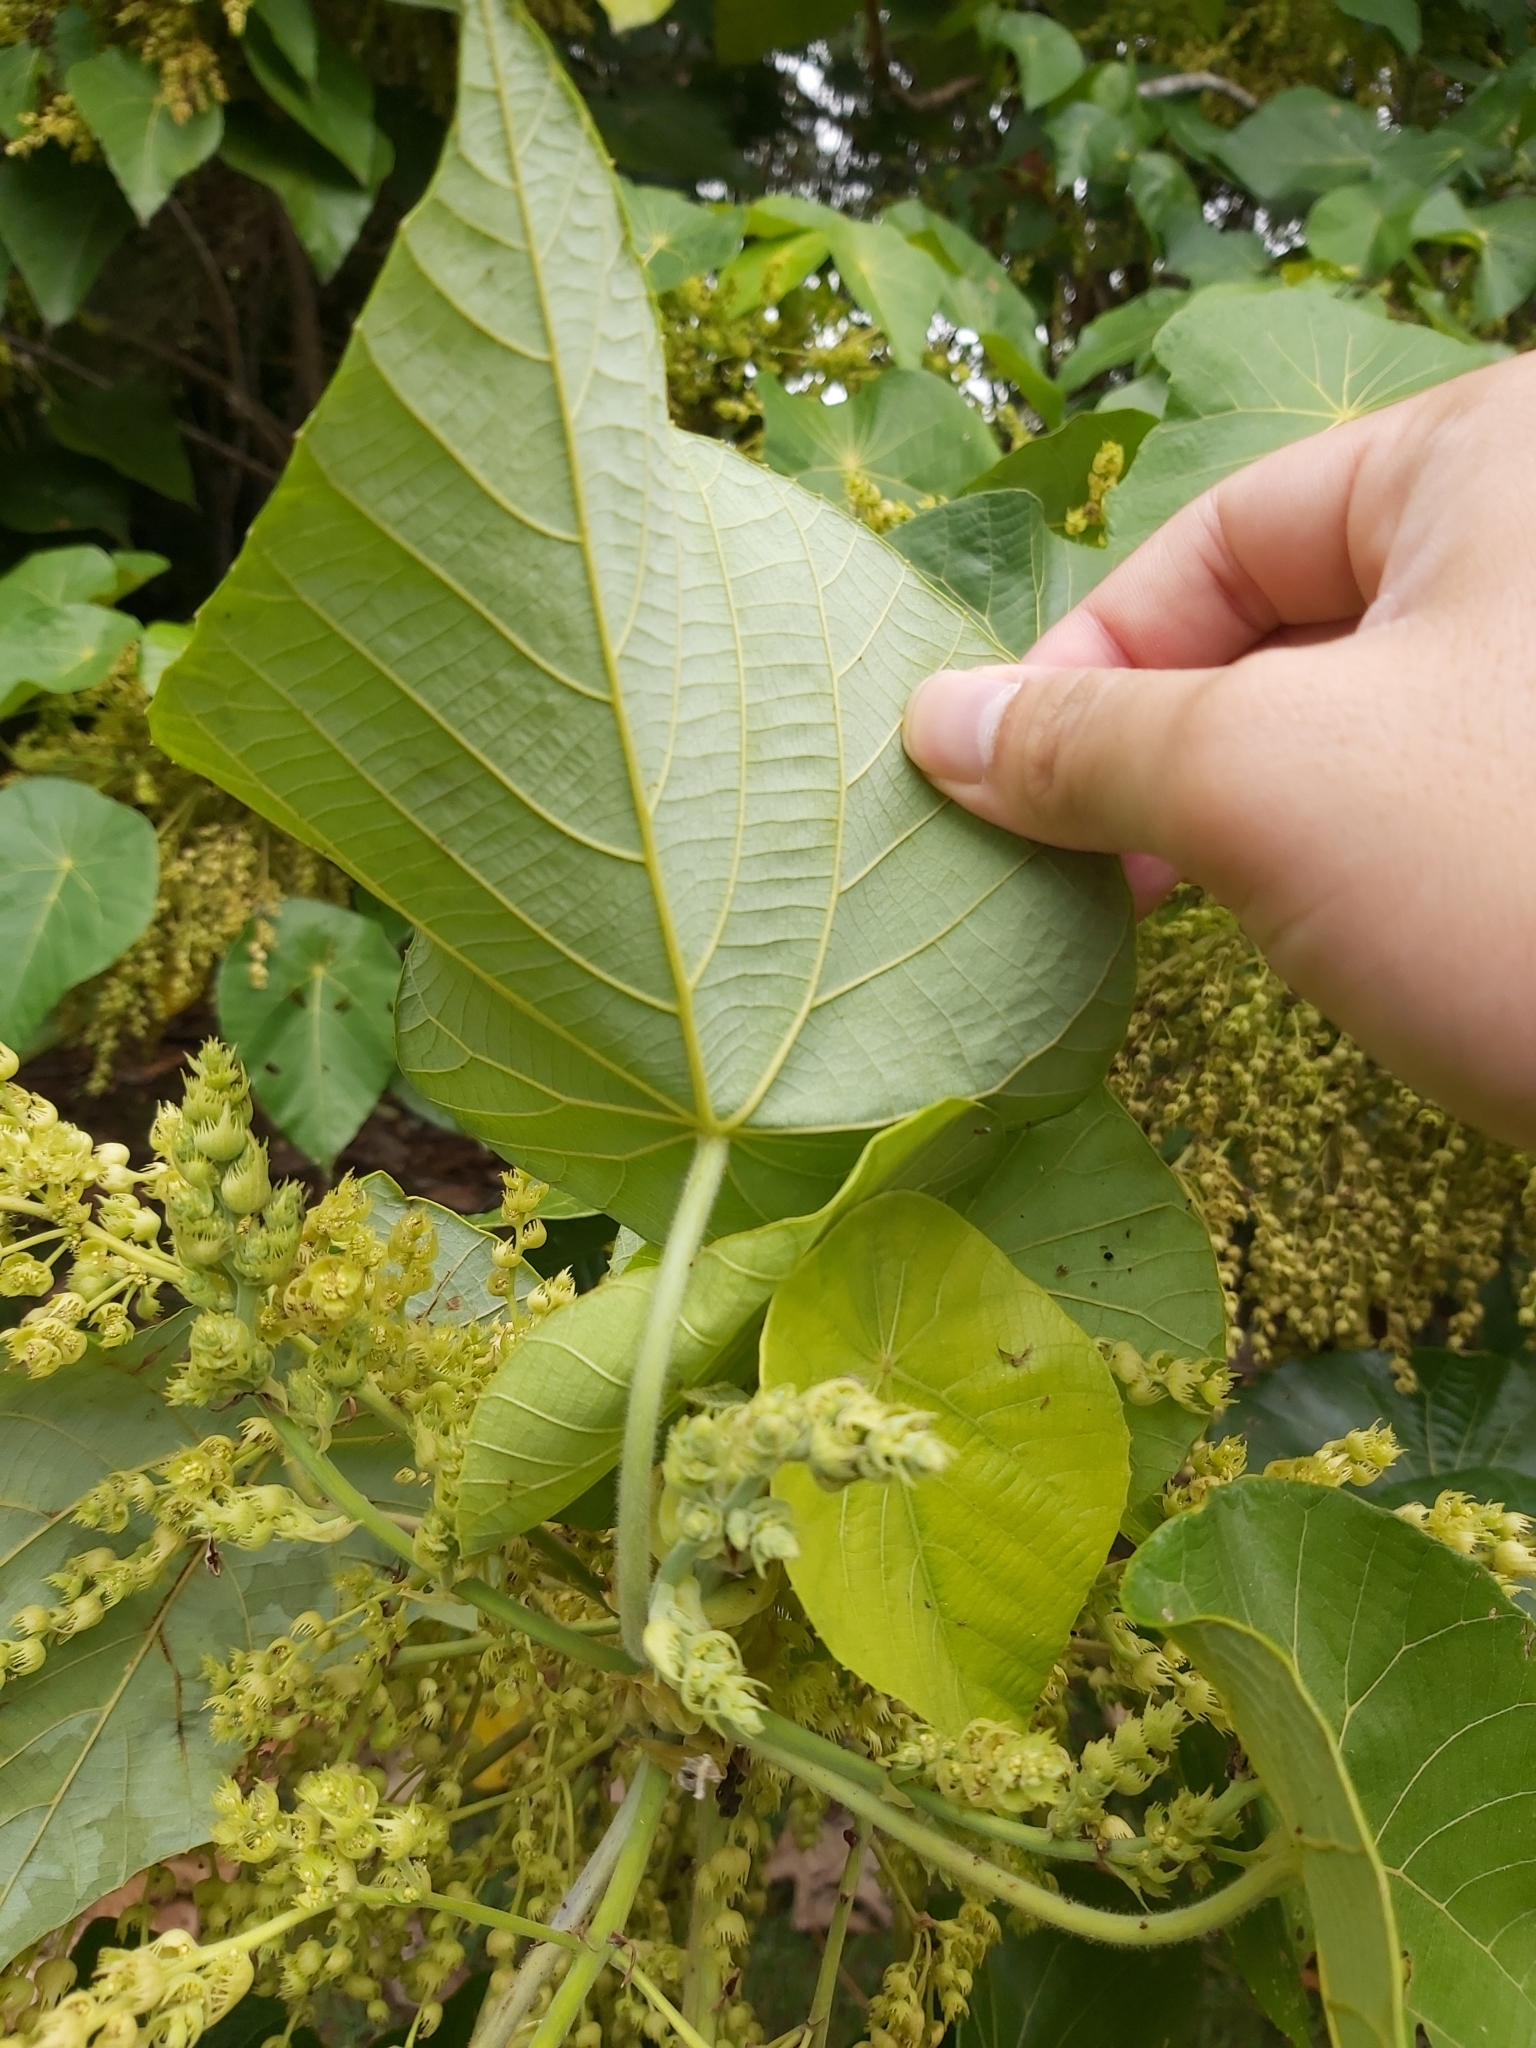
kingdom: Plantae
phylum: Tracheophyta
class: Magnoliopsida
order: Malpighiales
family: Euphorbiaceae
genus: Macaranga
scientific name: Macaranga tanarius
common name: Parasol leaf tree
